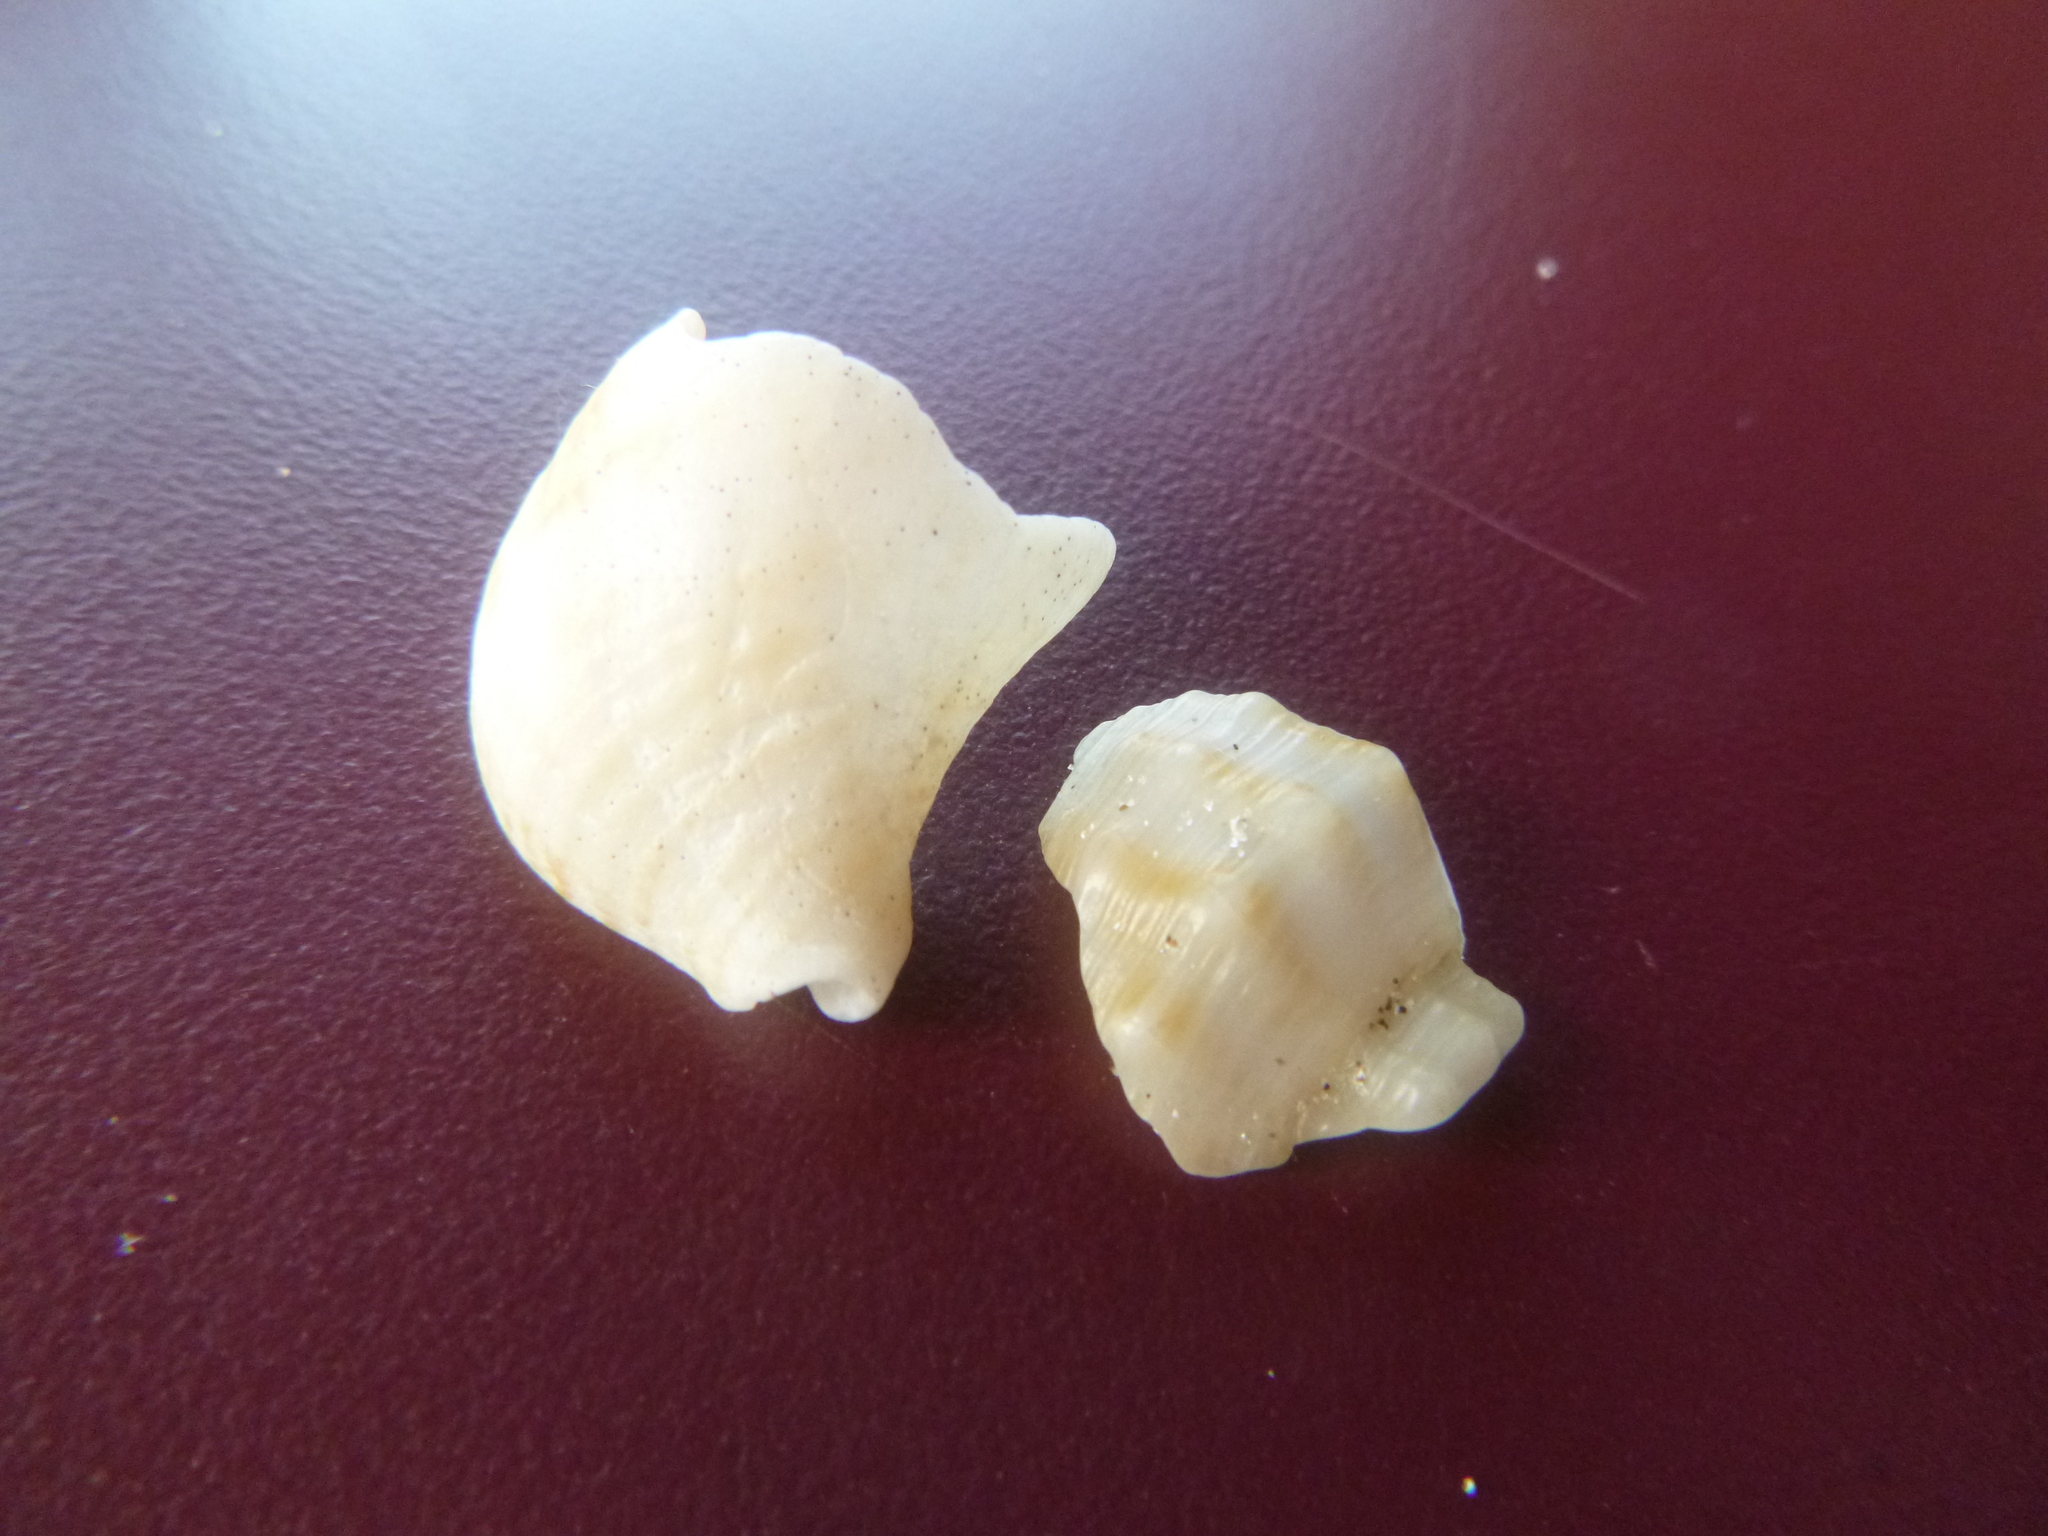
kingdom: Animalia
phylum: Mollusca
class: Gastropoda
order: Neogastropoda
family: Prosiphonidae
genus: Austrofusus
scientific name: Austrofusus glans
